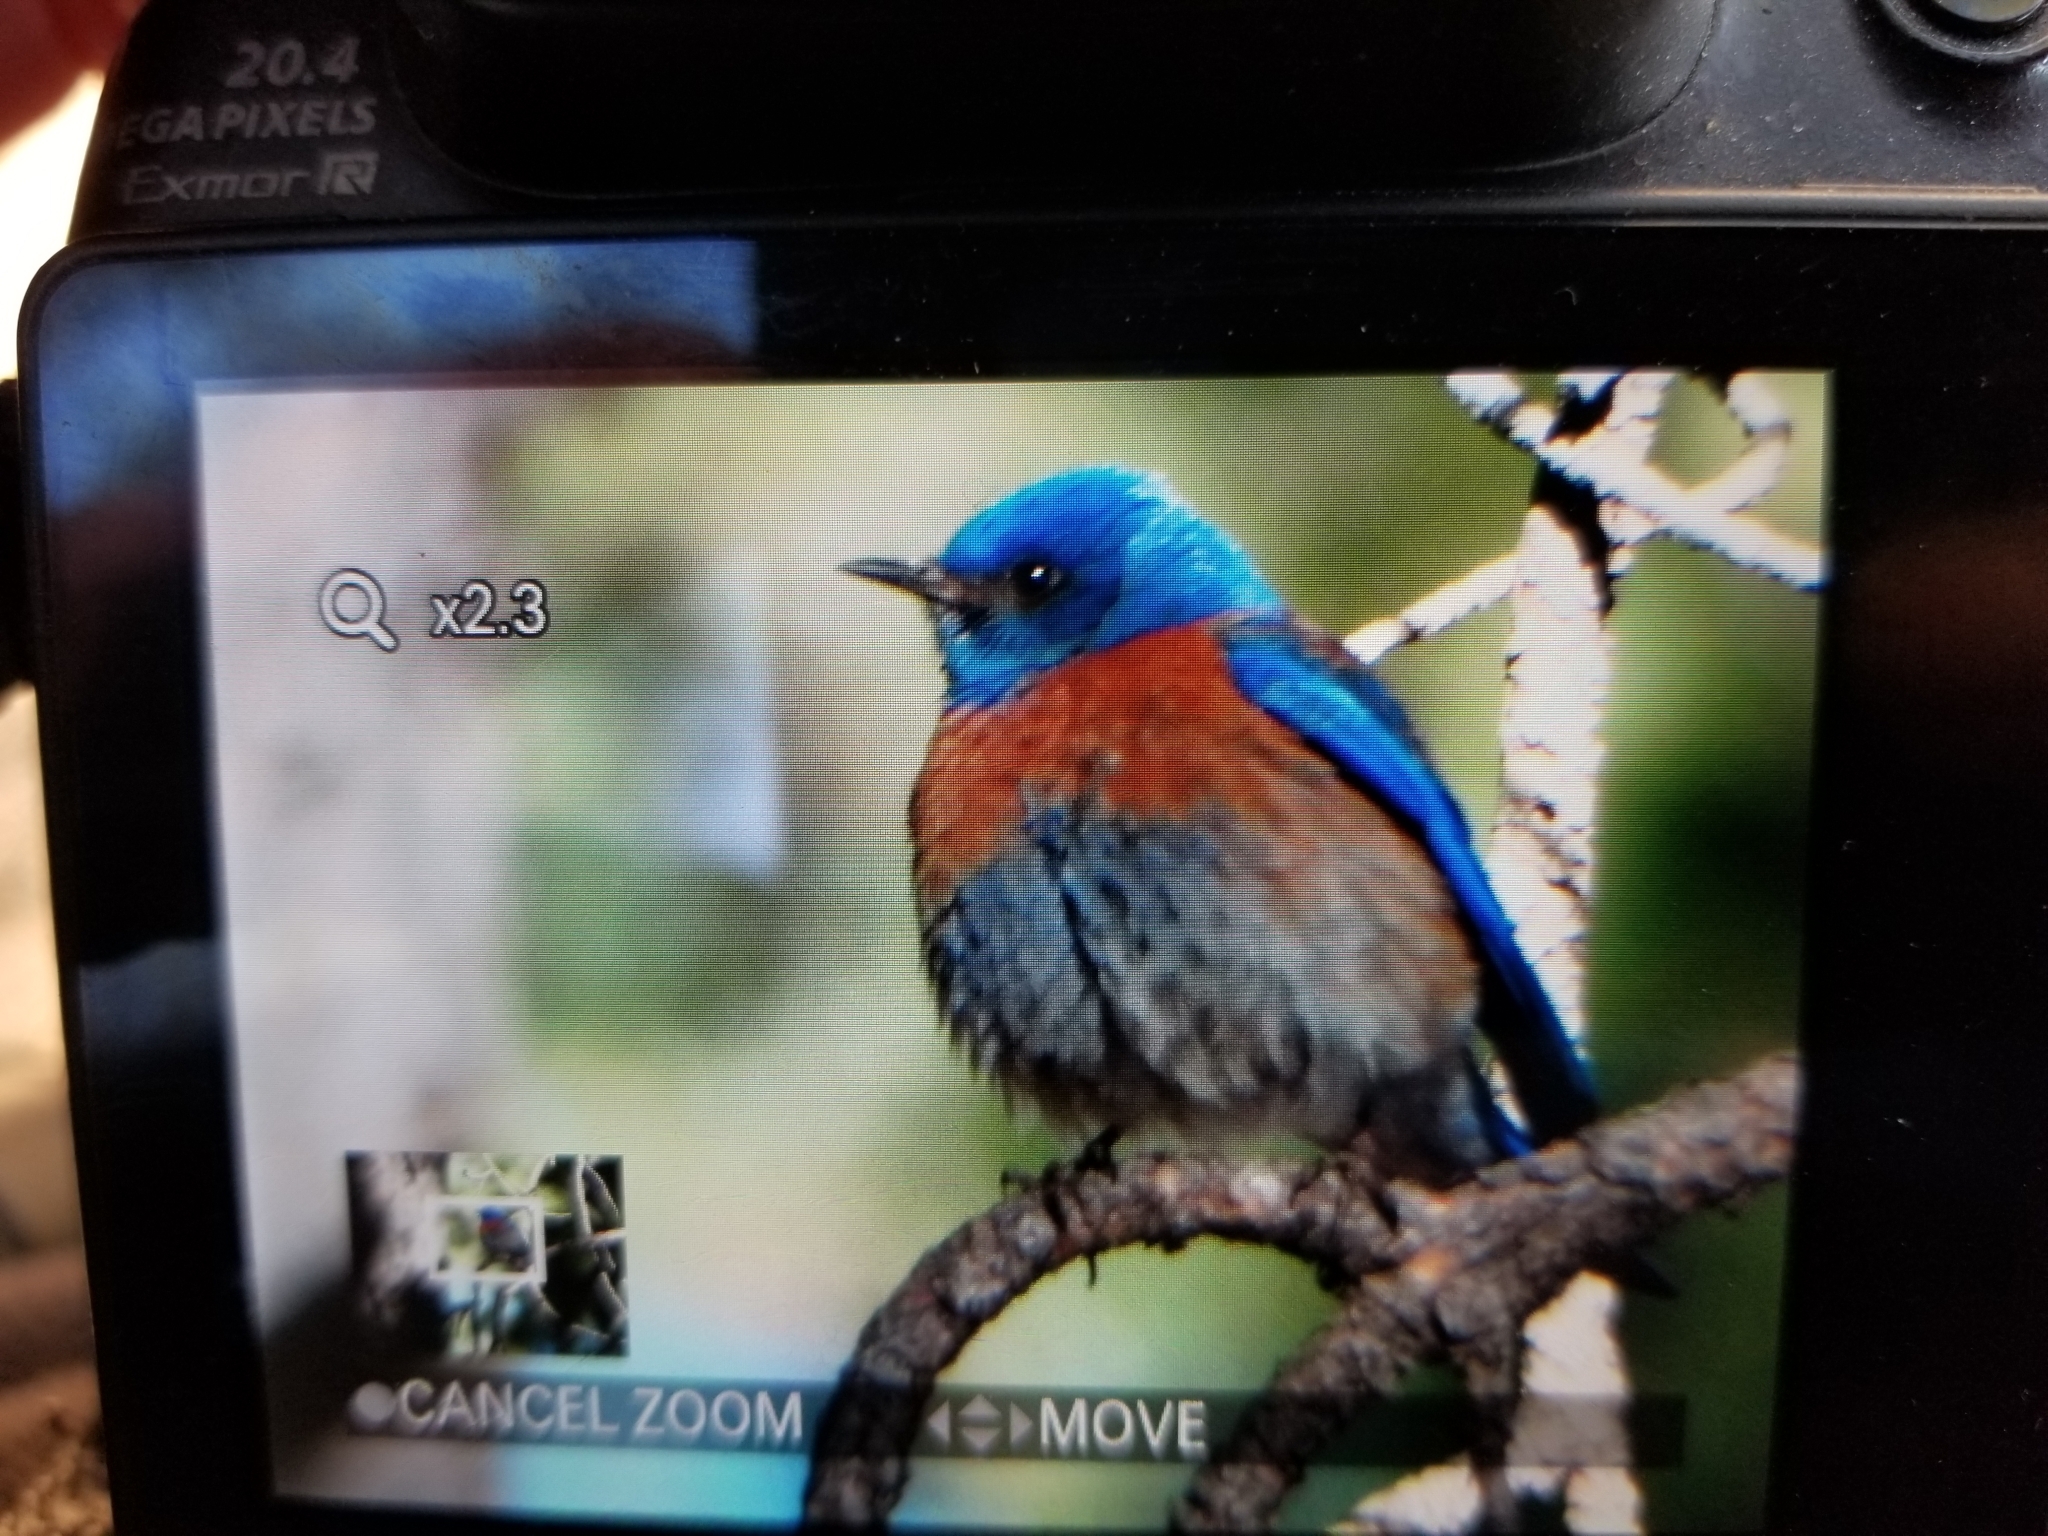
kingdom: Animalia
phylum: Chordata
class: Aves
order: Passeriformes
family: Turdidae
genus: Sialia
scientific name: Sialia mexicana
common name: Western bluebird
